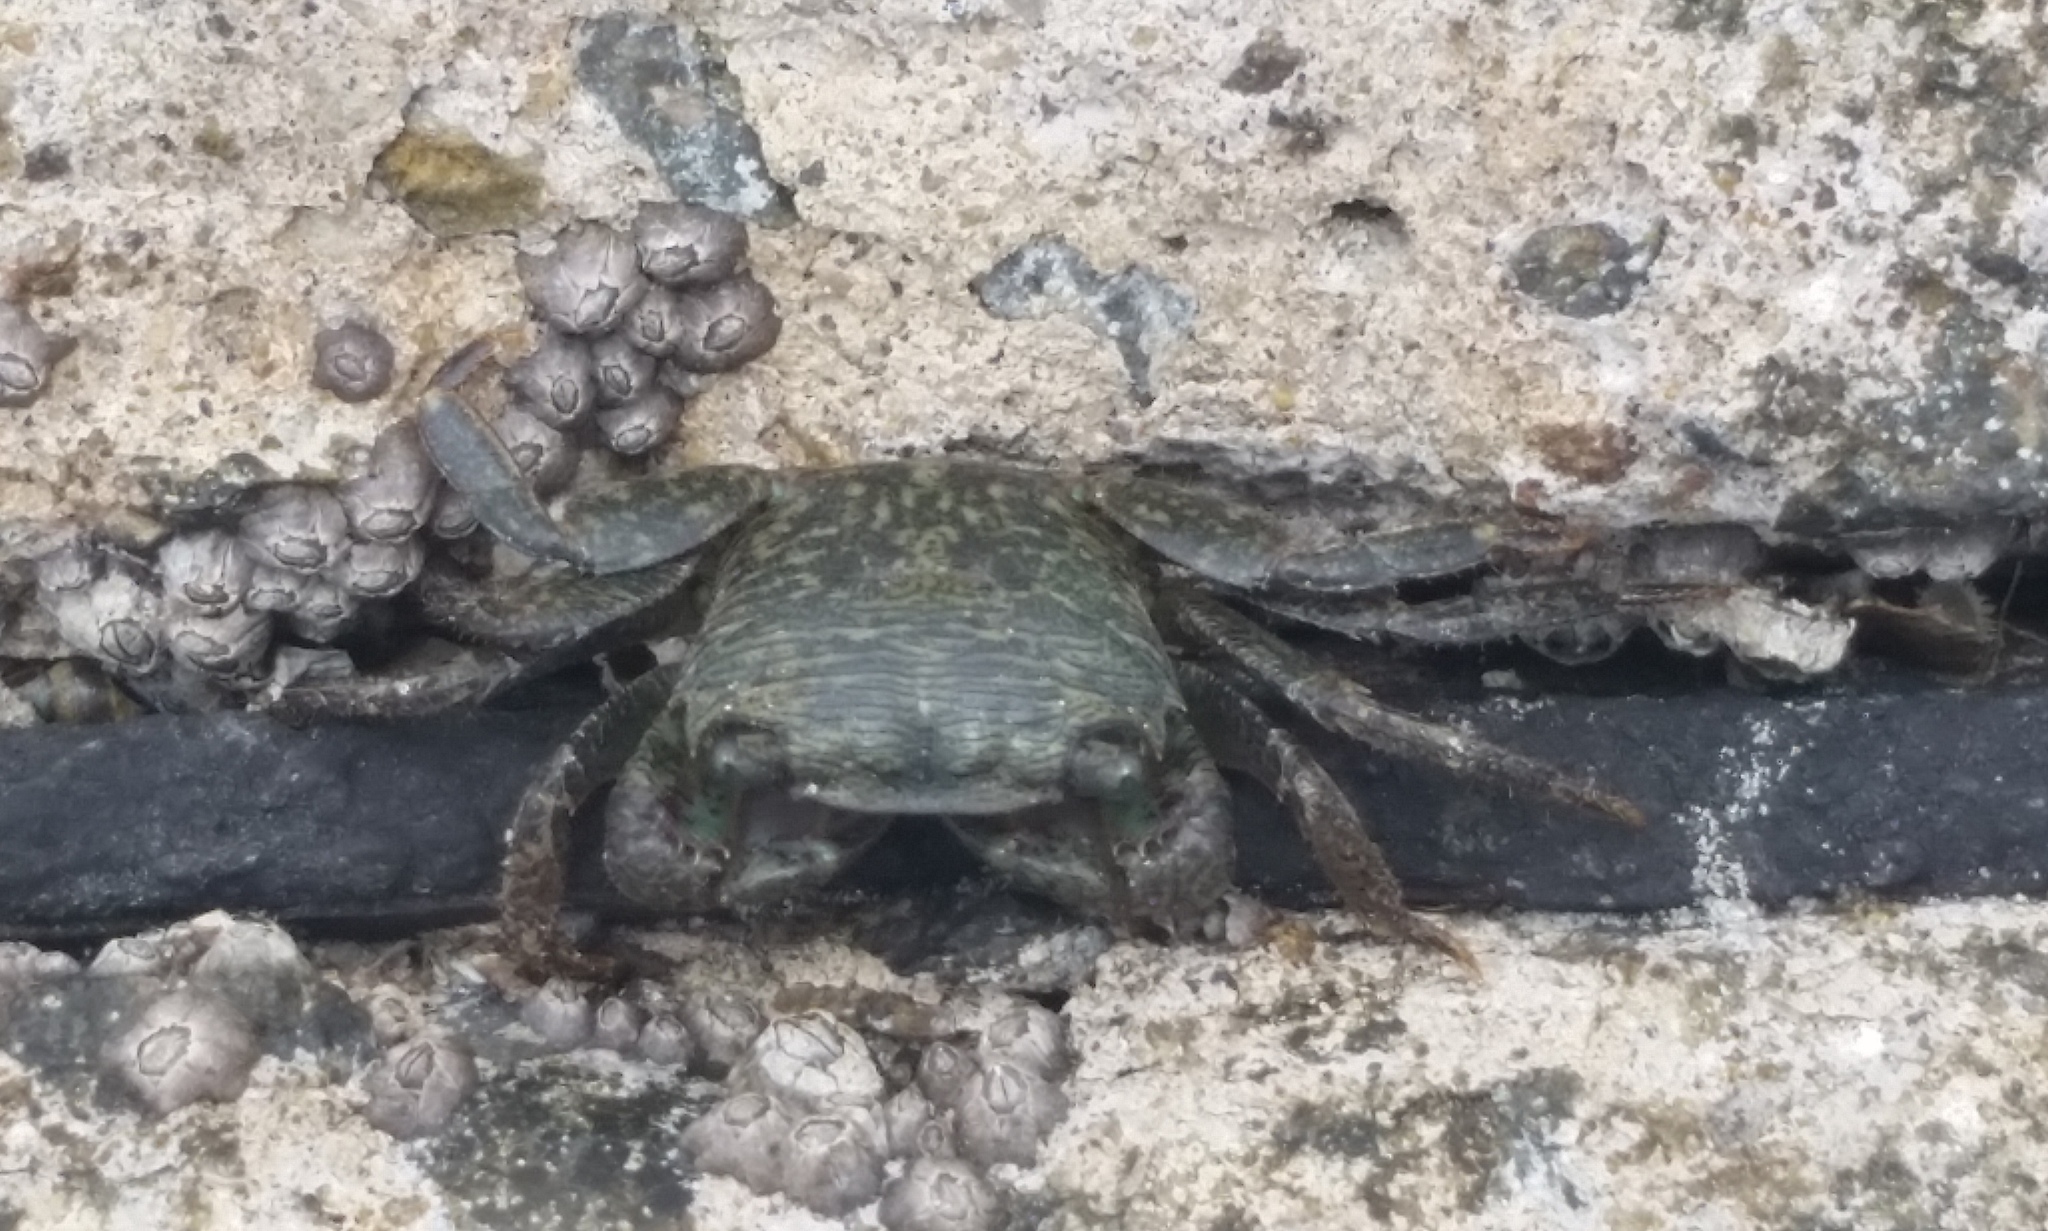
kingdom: Animalia
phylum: Arthropoda
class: Malacostraca
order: Decapoda
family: Grapsidae
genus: Pachygrapsus
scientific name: Pachygrapsus crassipes
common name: Striped shore crab
